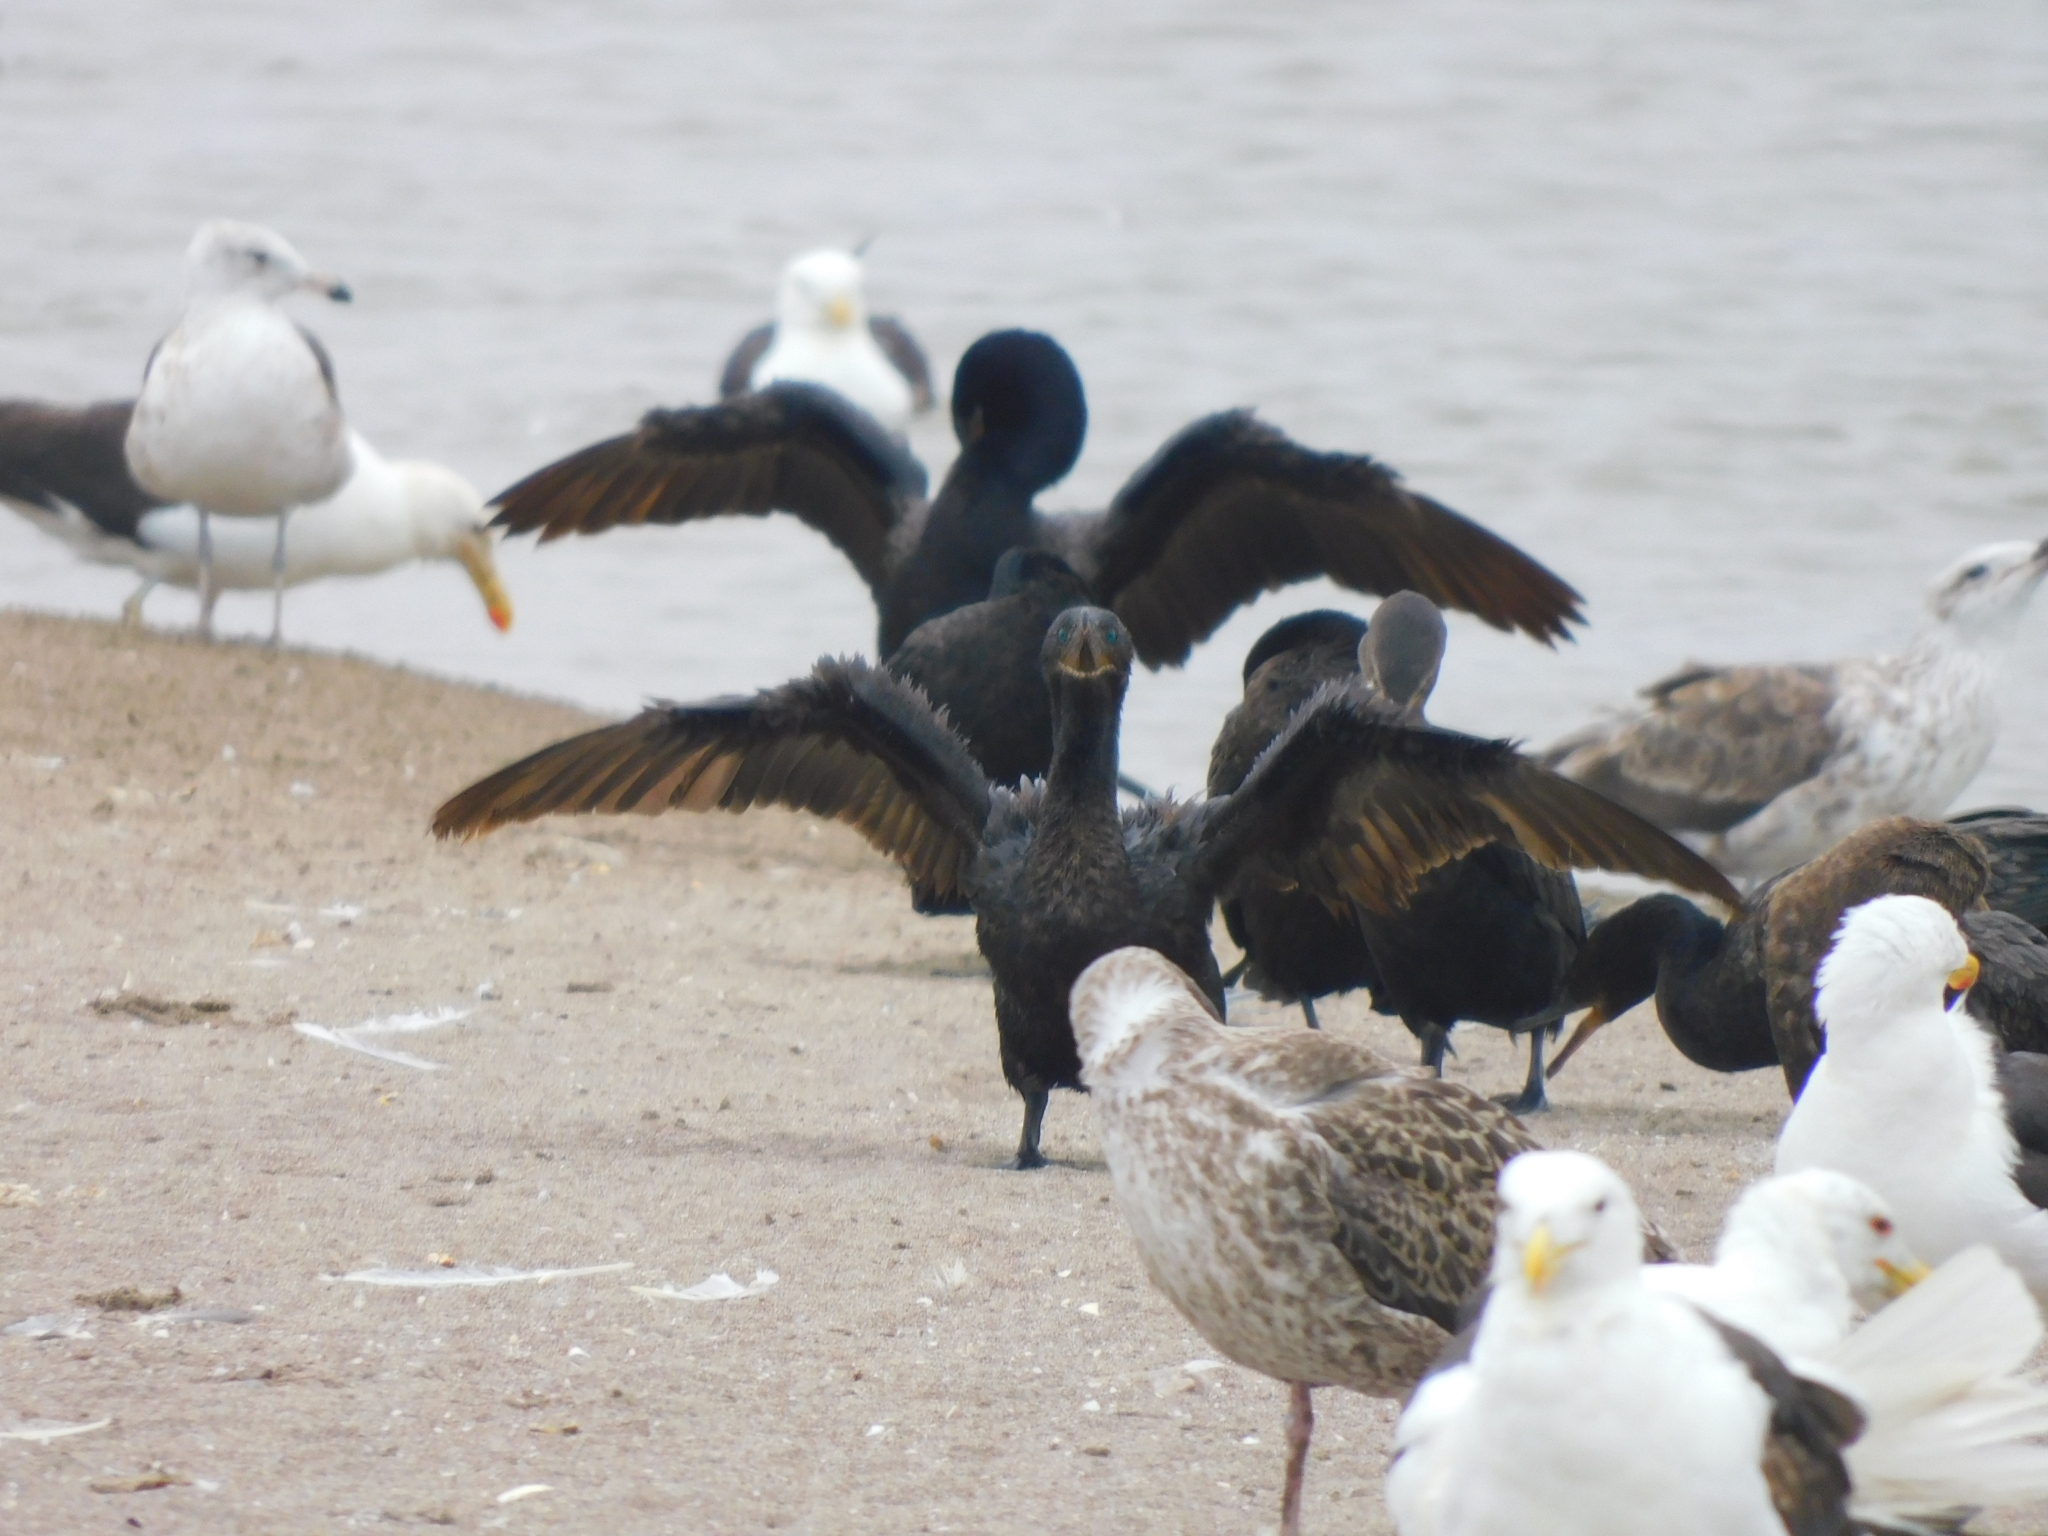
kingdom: Animalia
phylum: Chordata
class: Aves
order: Suliformes
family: Phalacrocoracidae
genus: Phalacrocorax
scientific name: Phalacrocorax brasilianus
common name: Neotropic cormorant
